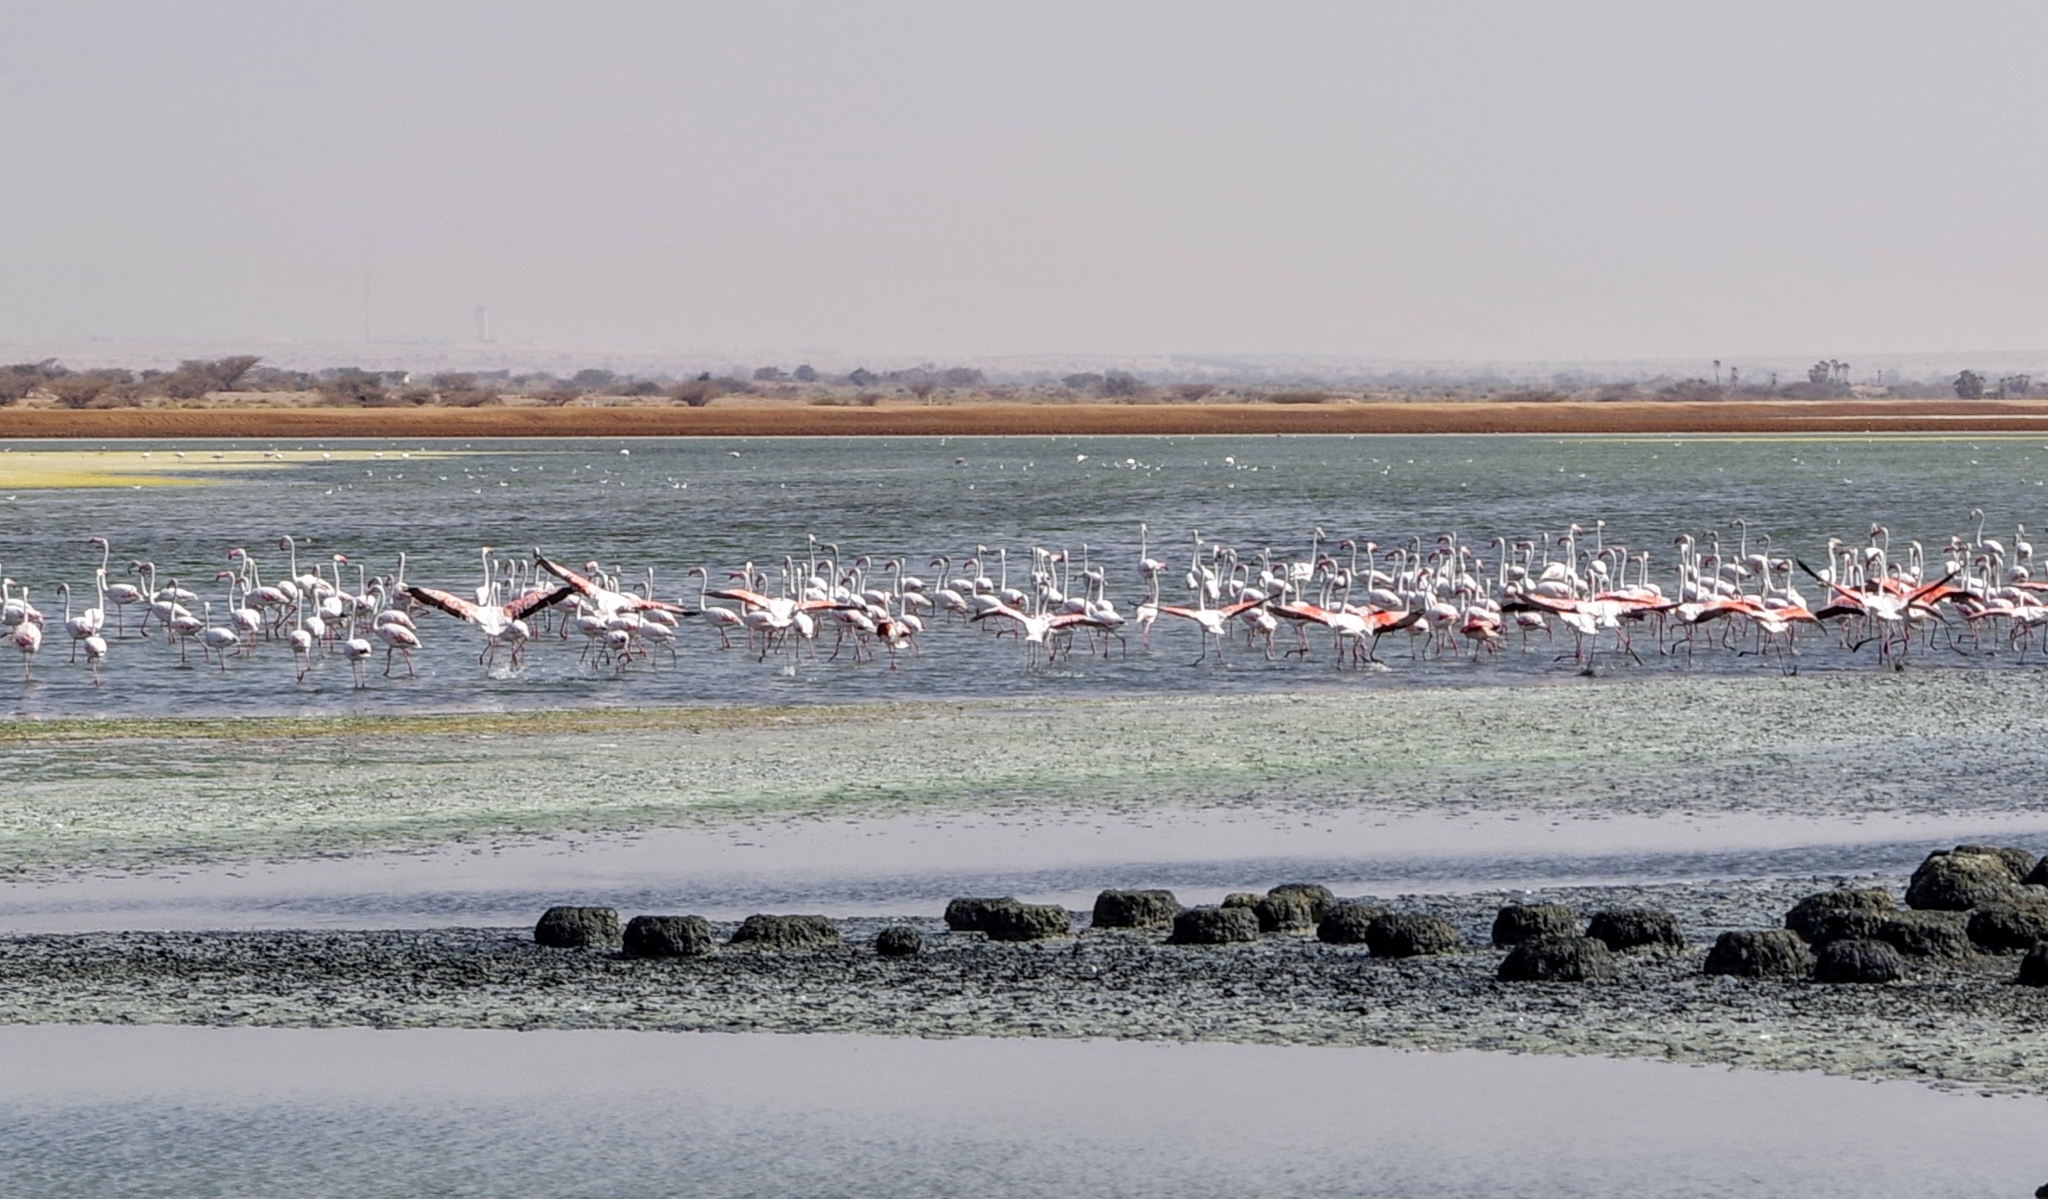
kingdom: Animalia
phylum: Chordata
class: Aves
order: Phoenicopteriformes
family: Phoenicopteridae
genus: Phoenicopterus
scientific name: Phoenicopterus roseus
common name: Greater flamingo
